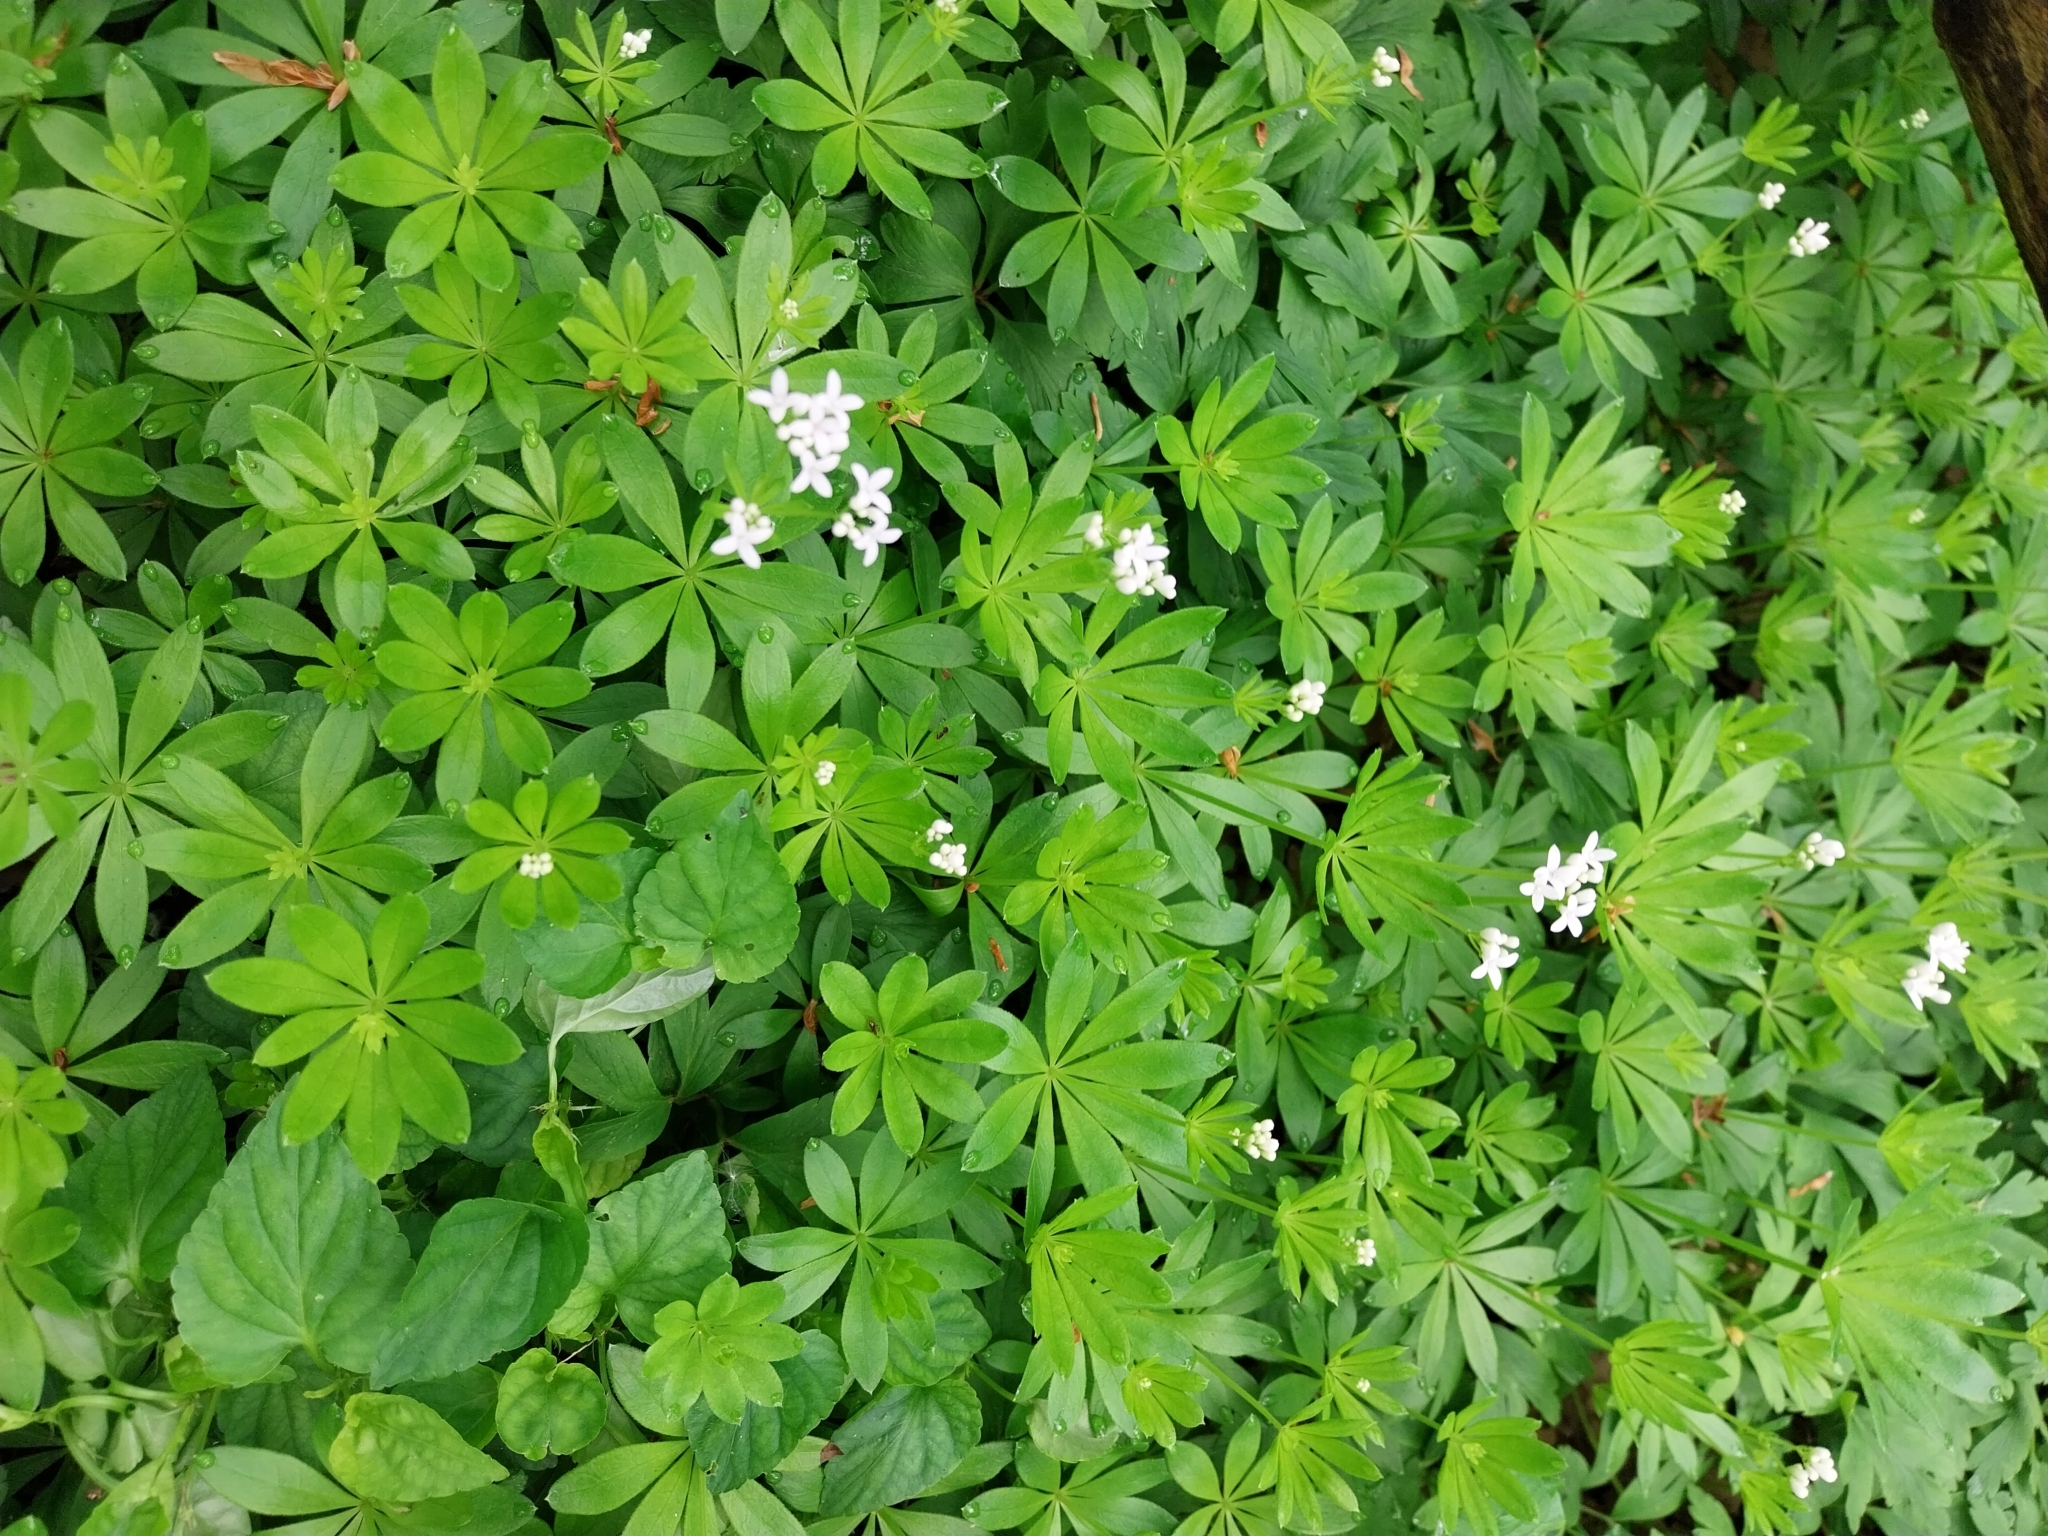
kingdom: Plantae
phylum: Tracheophyta
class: Magnoliopsida
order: Gentianales
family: Rubiaceae
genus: Galium
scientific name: Galium odoratum
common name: Sweet woodruff
